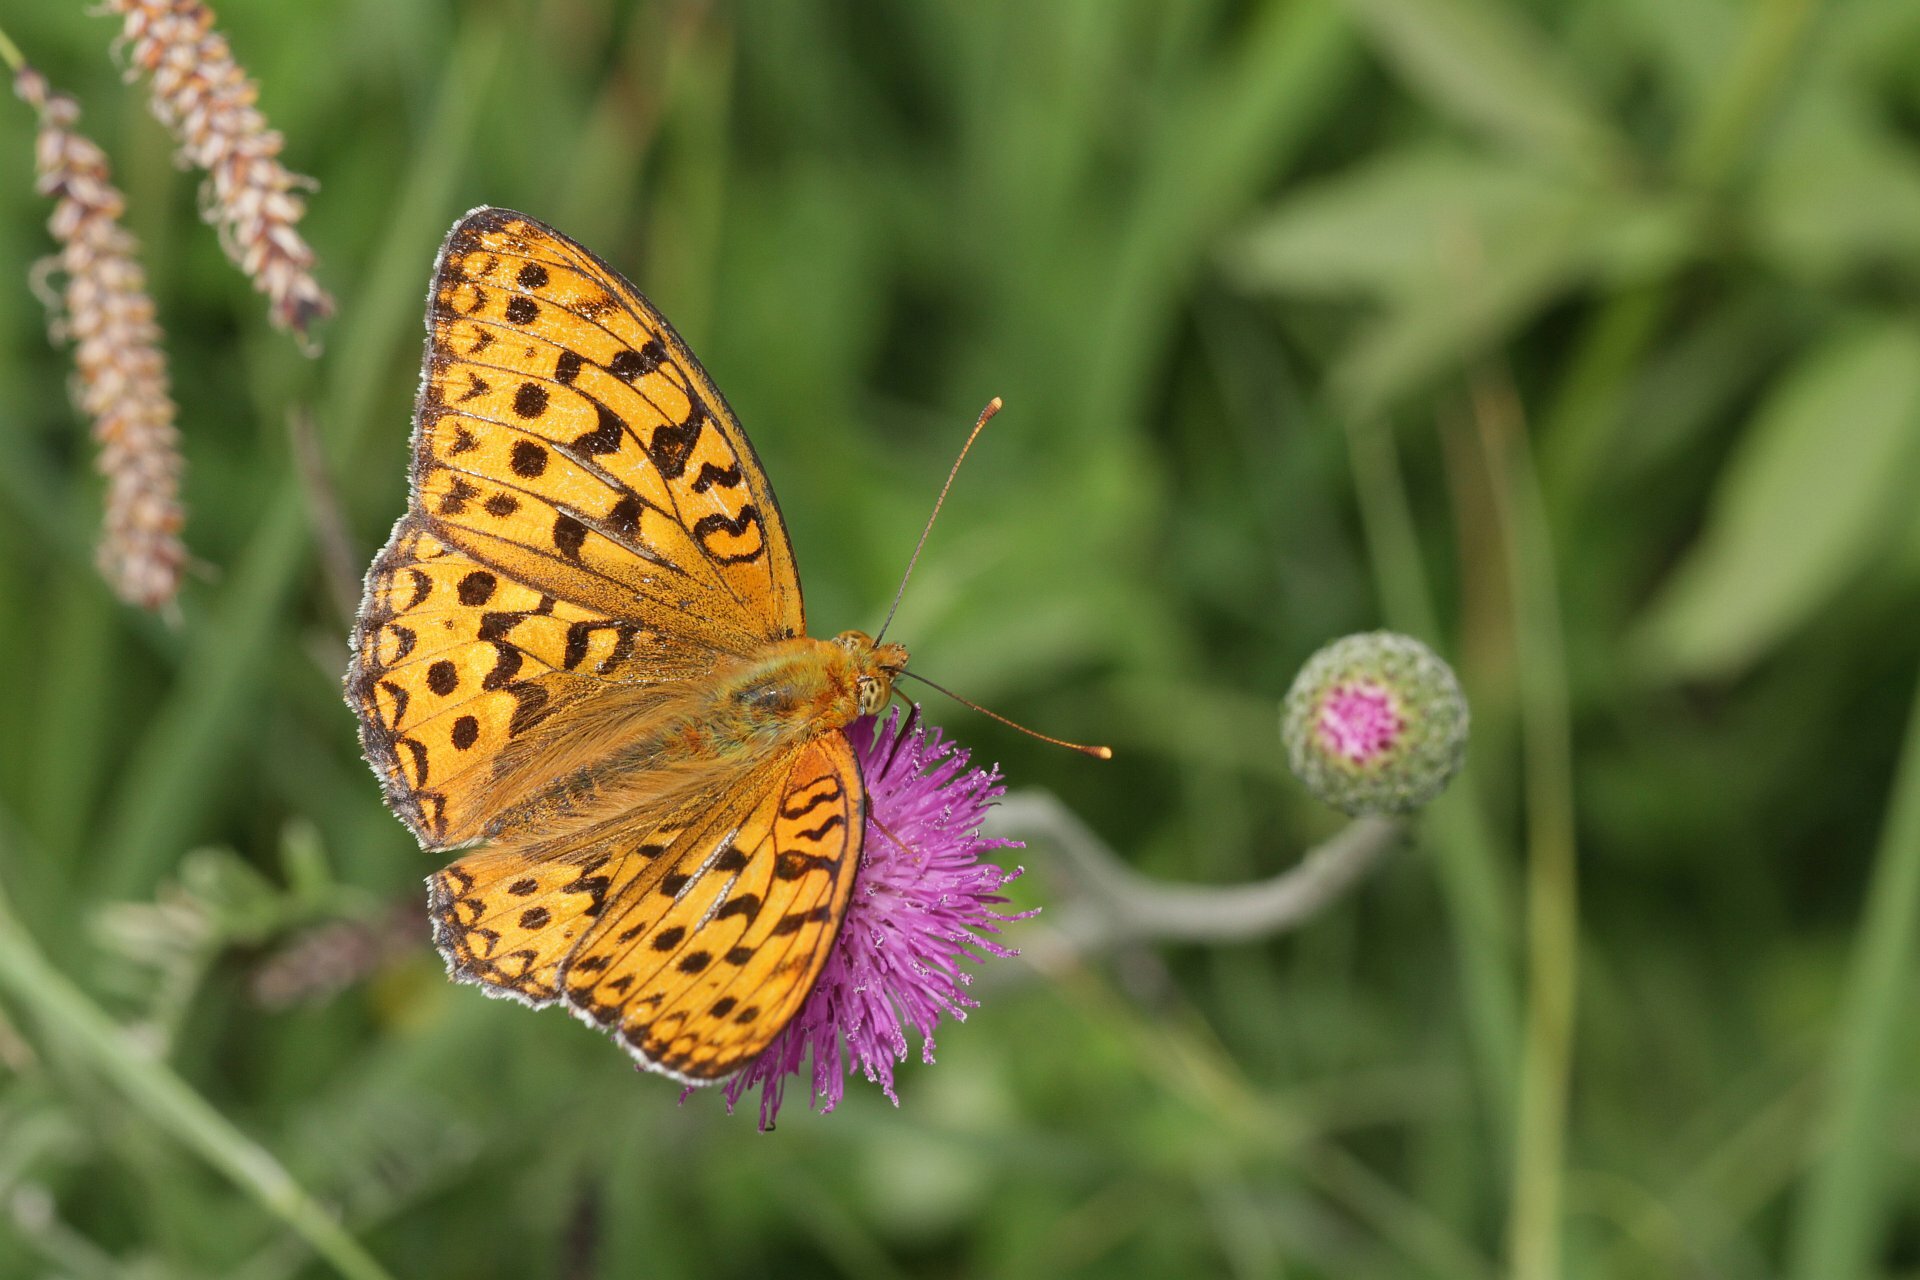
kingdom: Animalia
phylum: Arthropoda
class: Insecta
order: Lepidoptera
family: Nymphalidae
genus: Fabriciana
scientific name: Fabriciana adippe
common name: High brown fritillary
